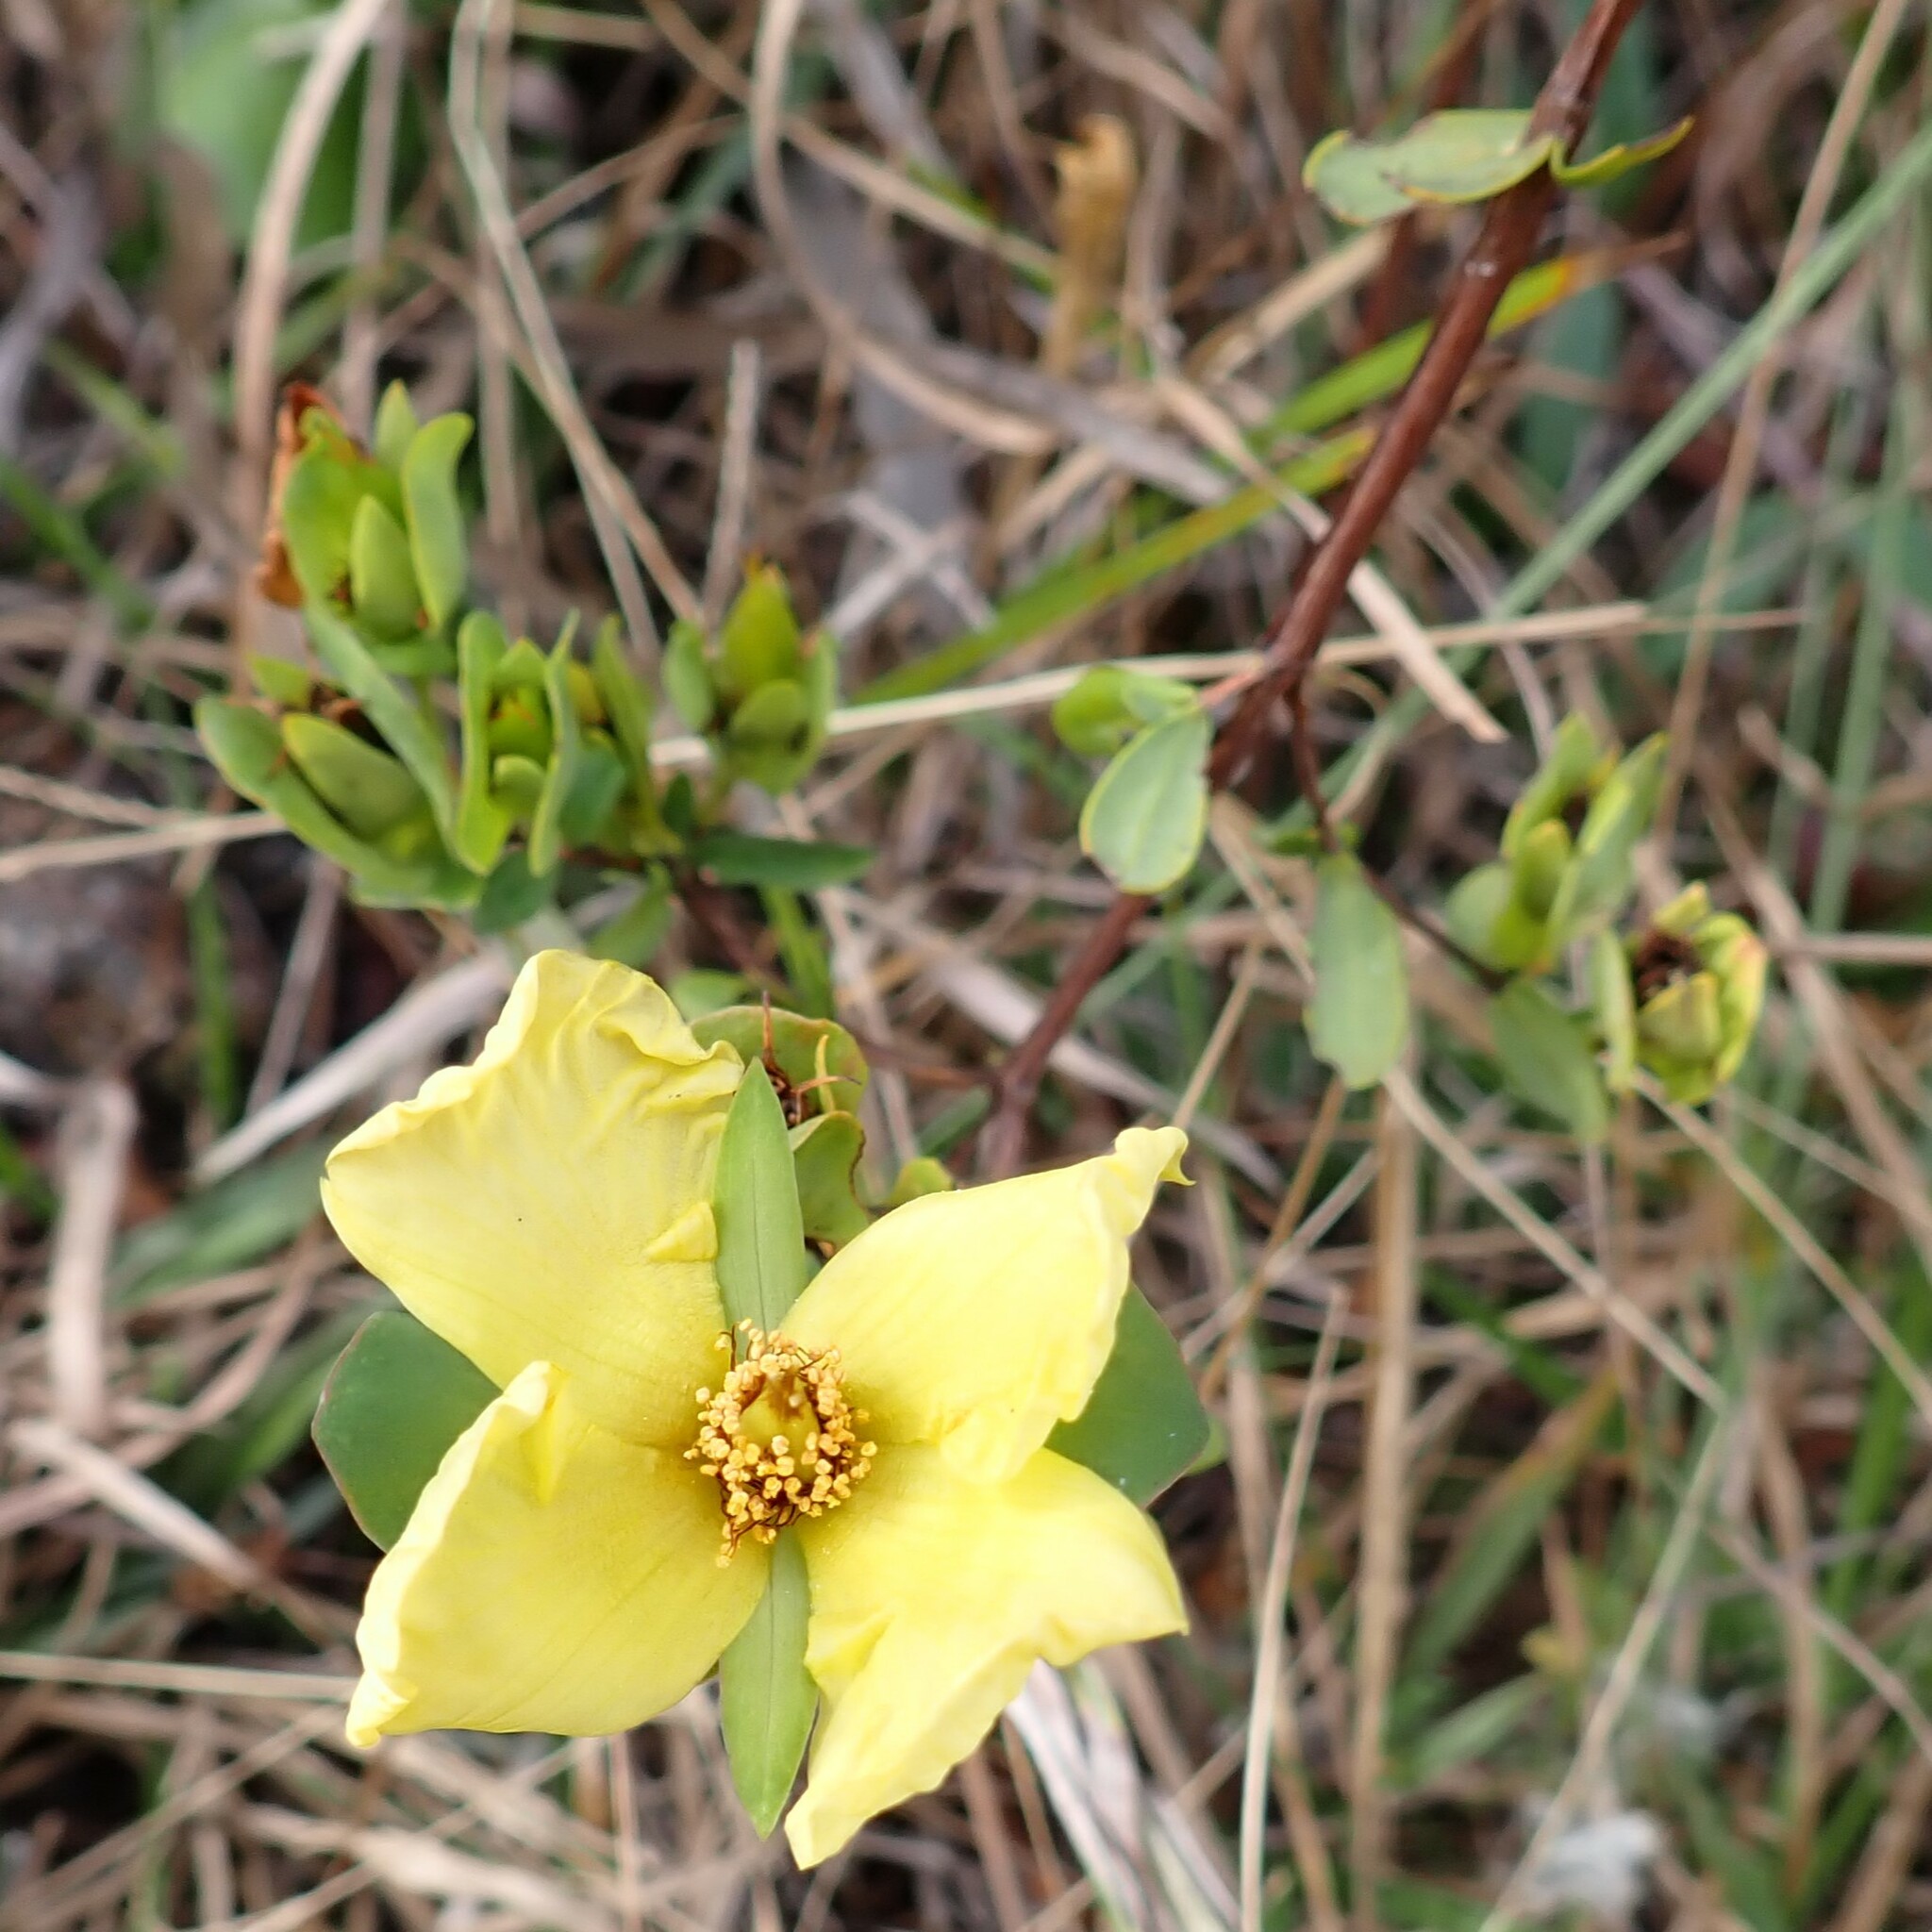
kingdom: Plantae
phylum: Tracheophyta
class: Magnoliopsida
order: Malpighiales
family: Hypericaceae
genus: Hypericum
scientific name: Hypericum crux-andreae
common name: St.-peter's-wort
